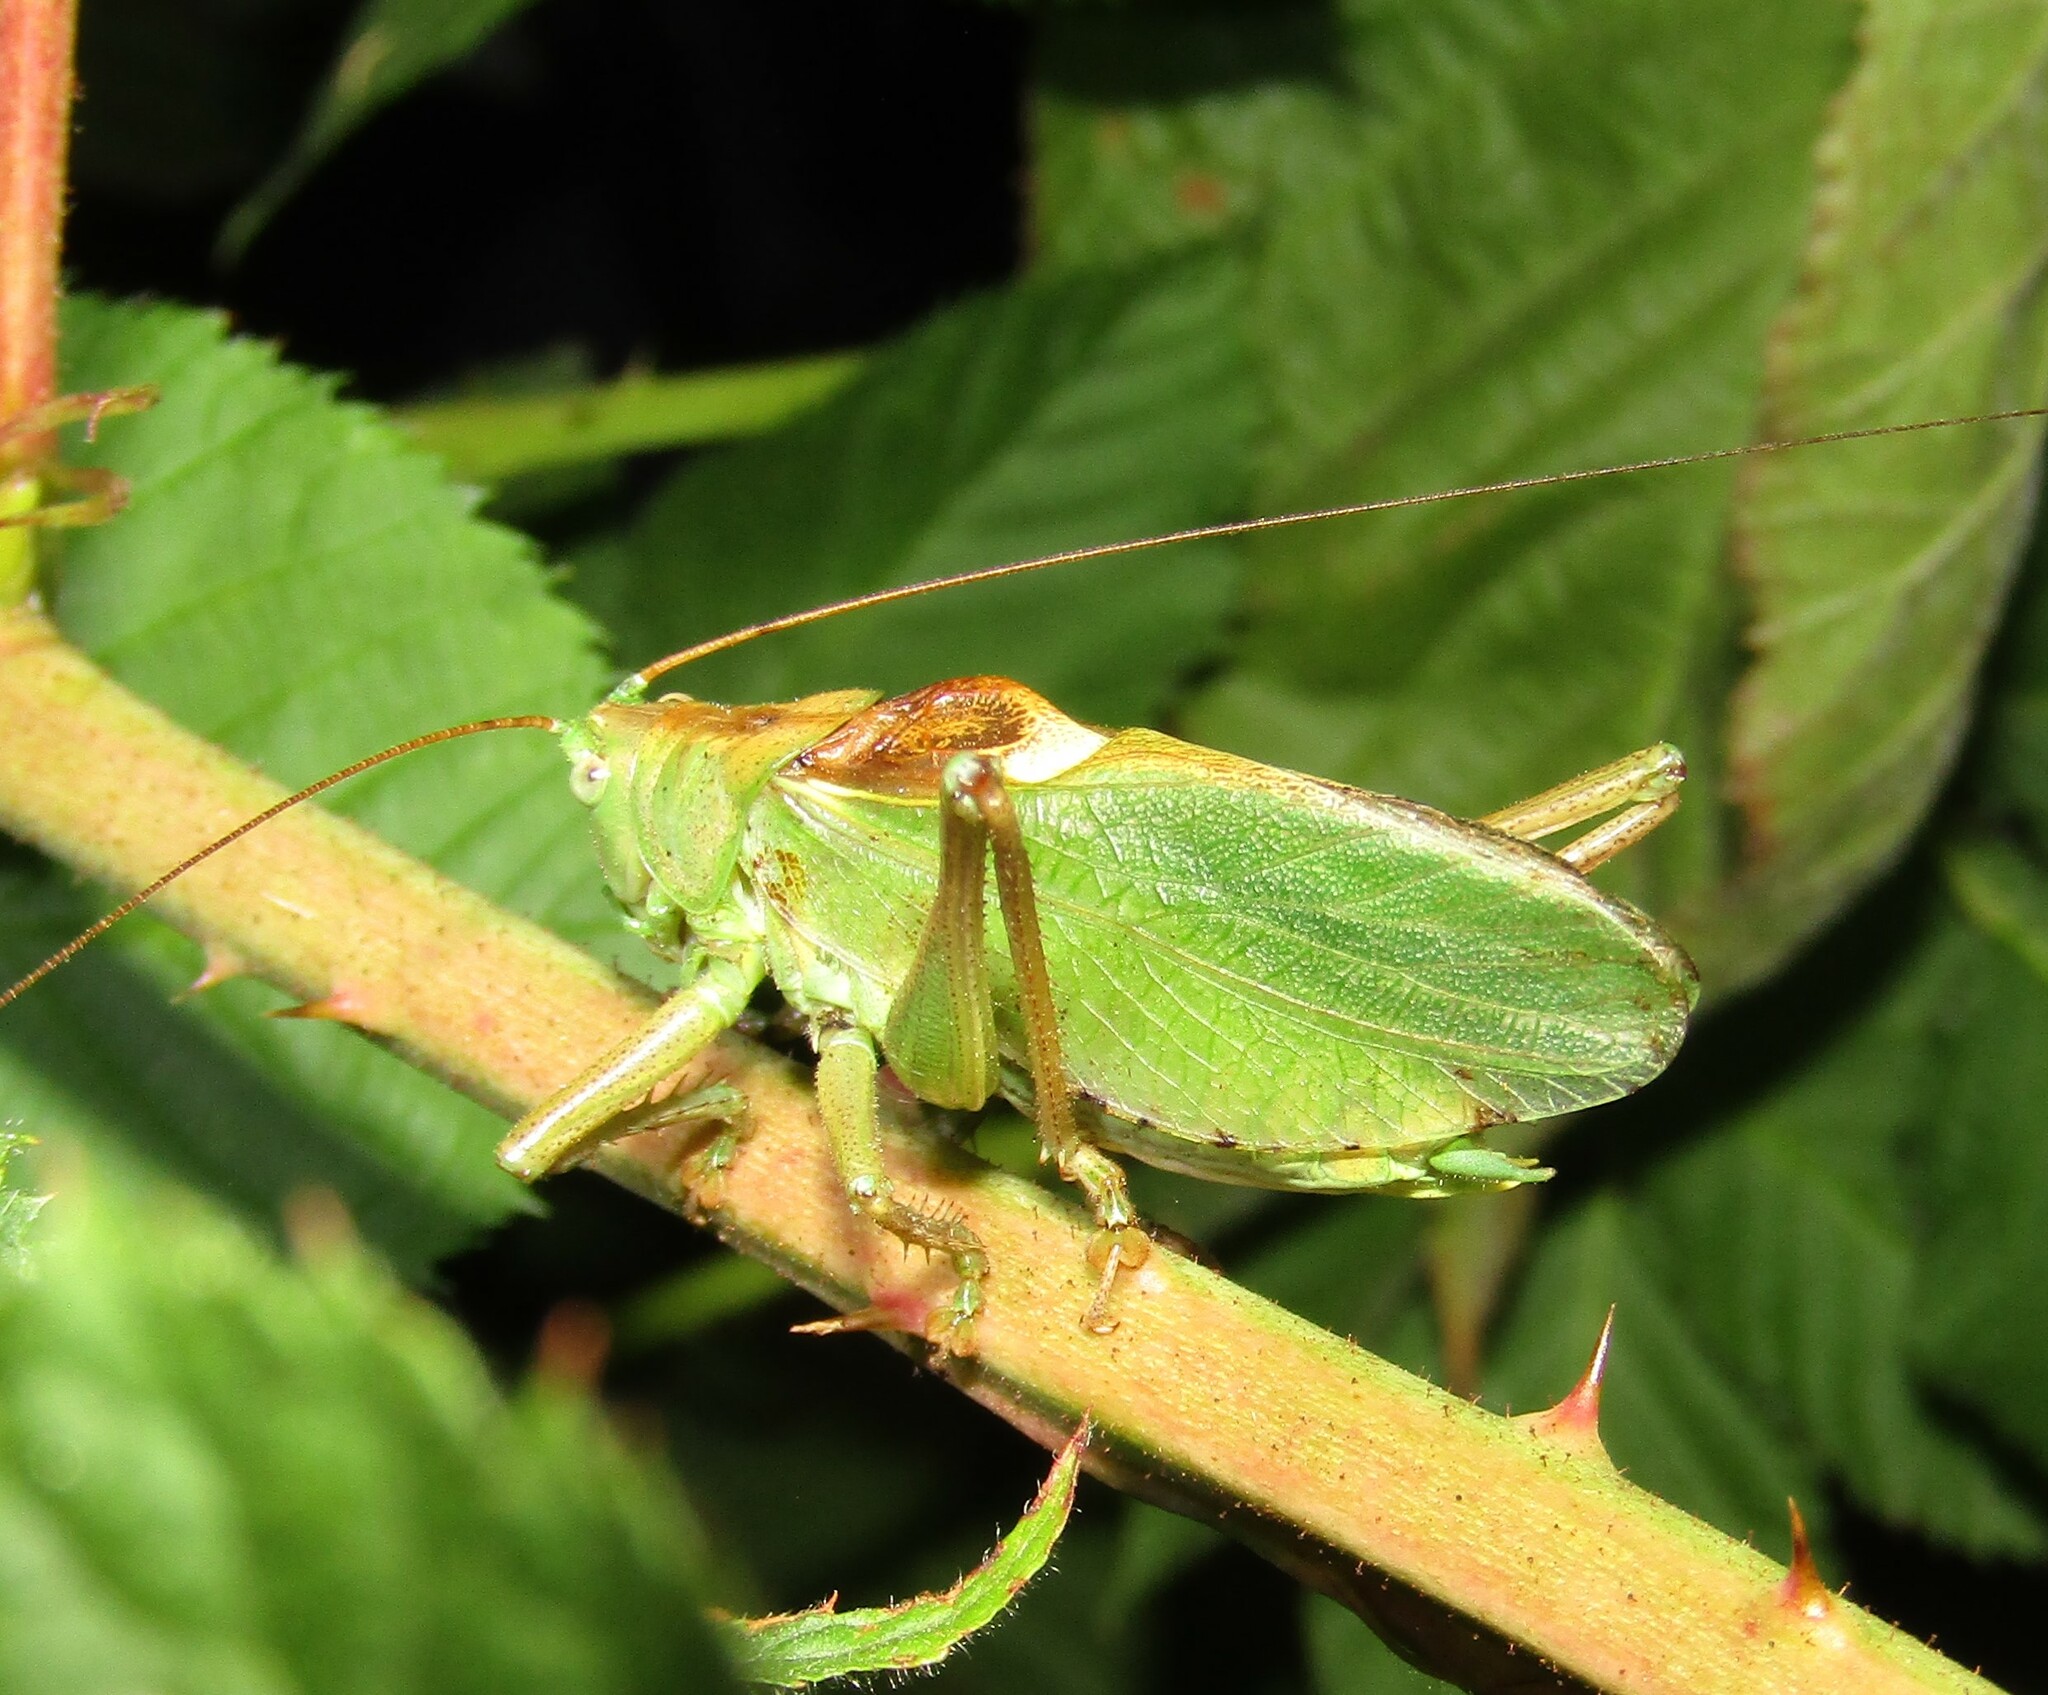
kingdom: Animalia
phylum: Arthropoda
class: Insecta
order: Orthoptera
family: Tettigoniidae
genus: Tettigonia
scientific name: Tettigonia cantans
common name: Upland green bush-cricket
